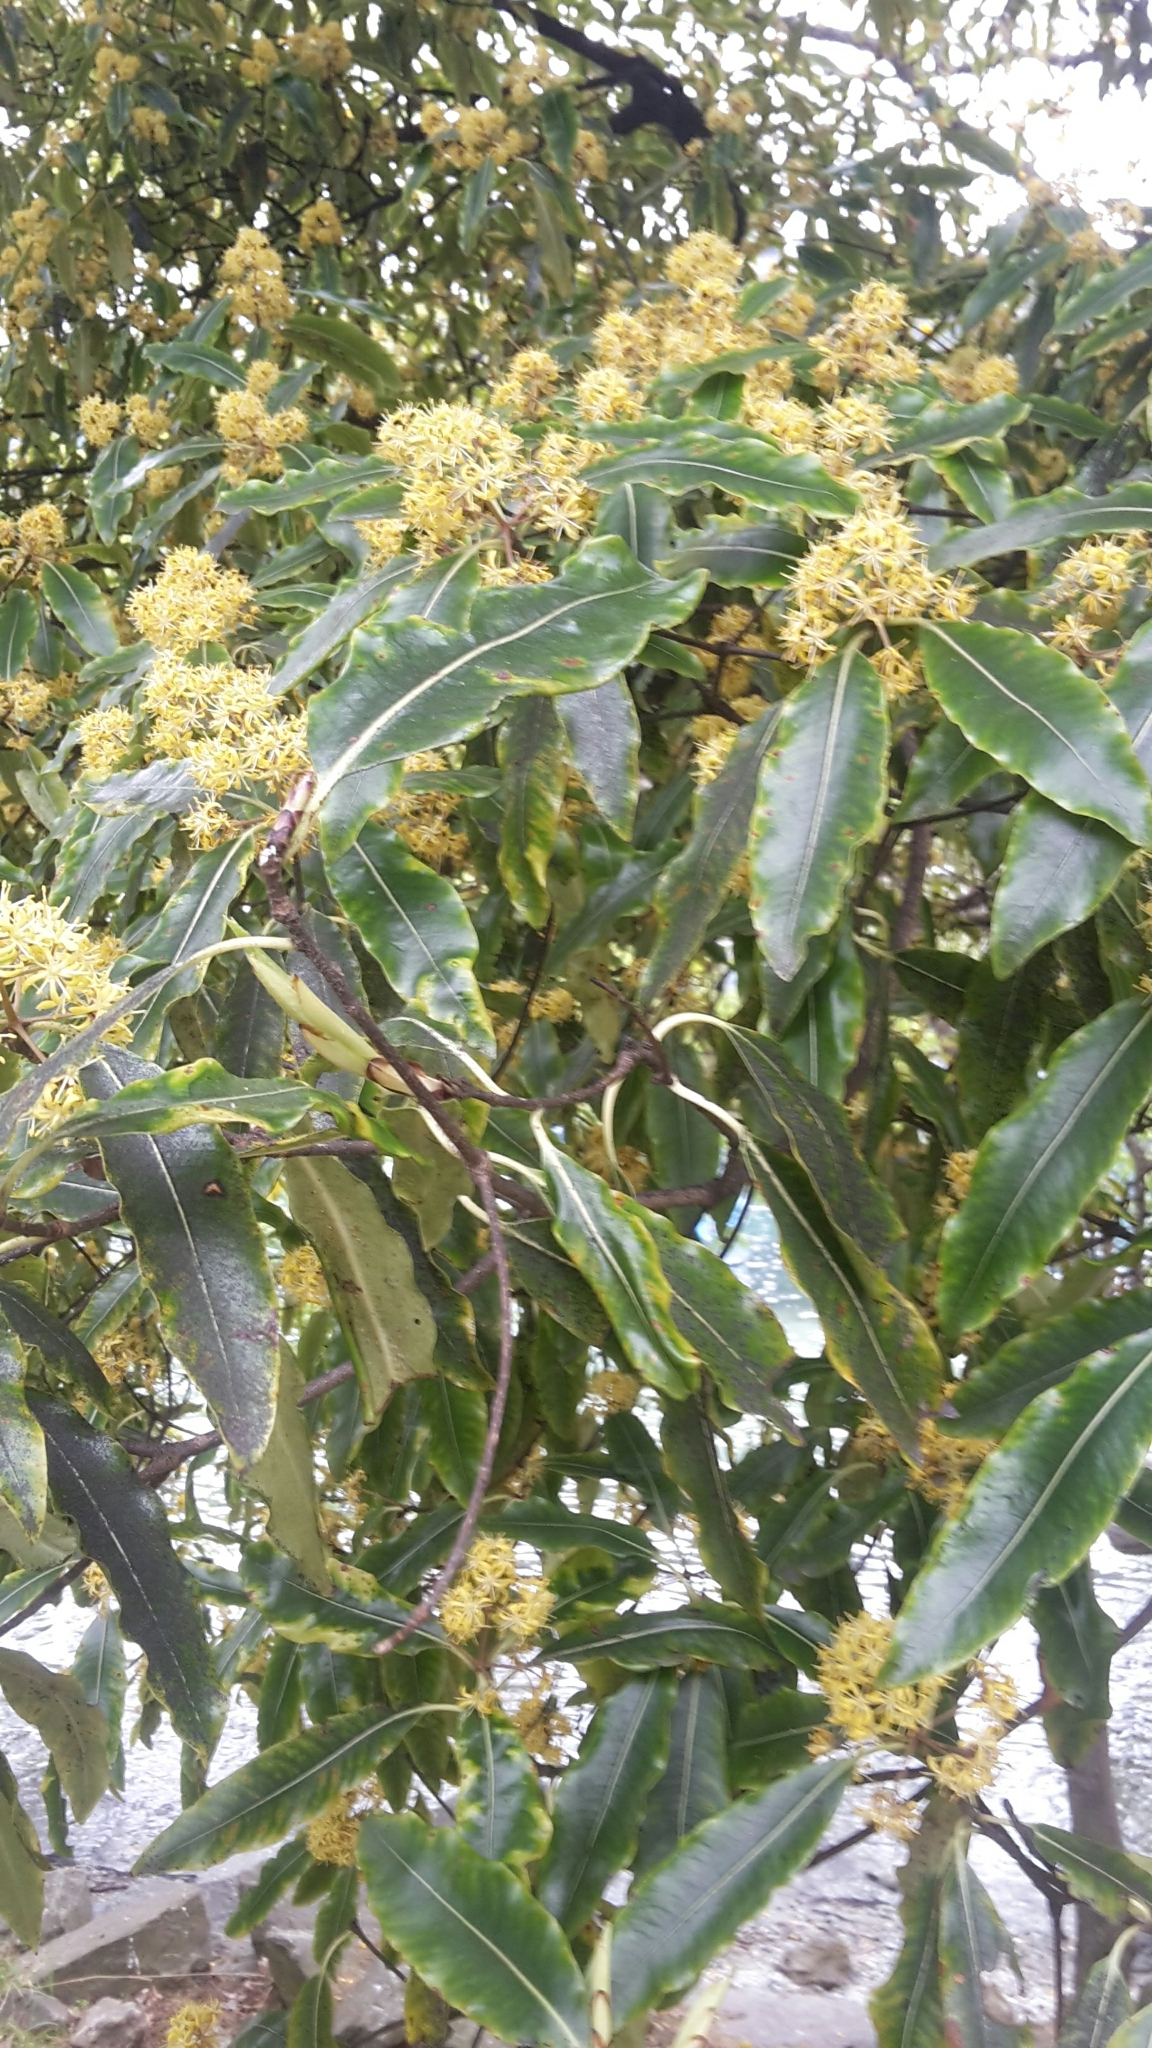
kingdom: Plantae
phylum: Tracheophyta
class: Magnoliopsida
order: Apiales
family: Pittosporaceae
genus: Pittosporum
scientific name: Pittosporum eugenioides
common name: Lemonwood
